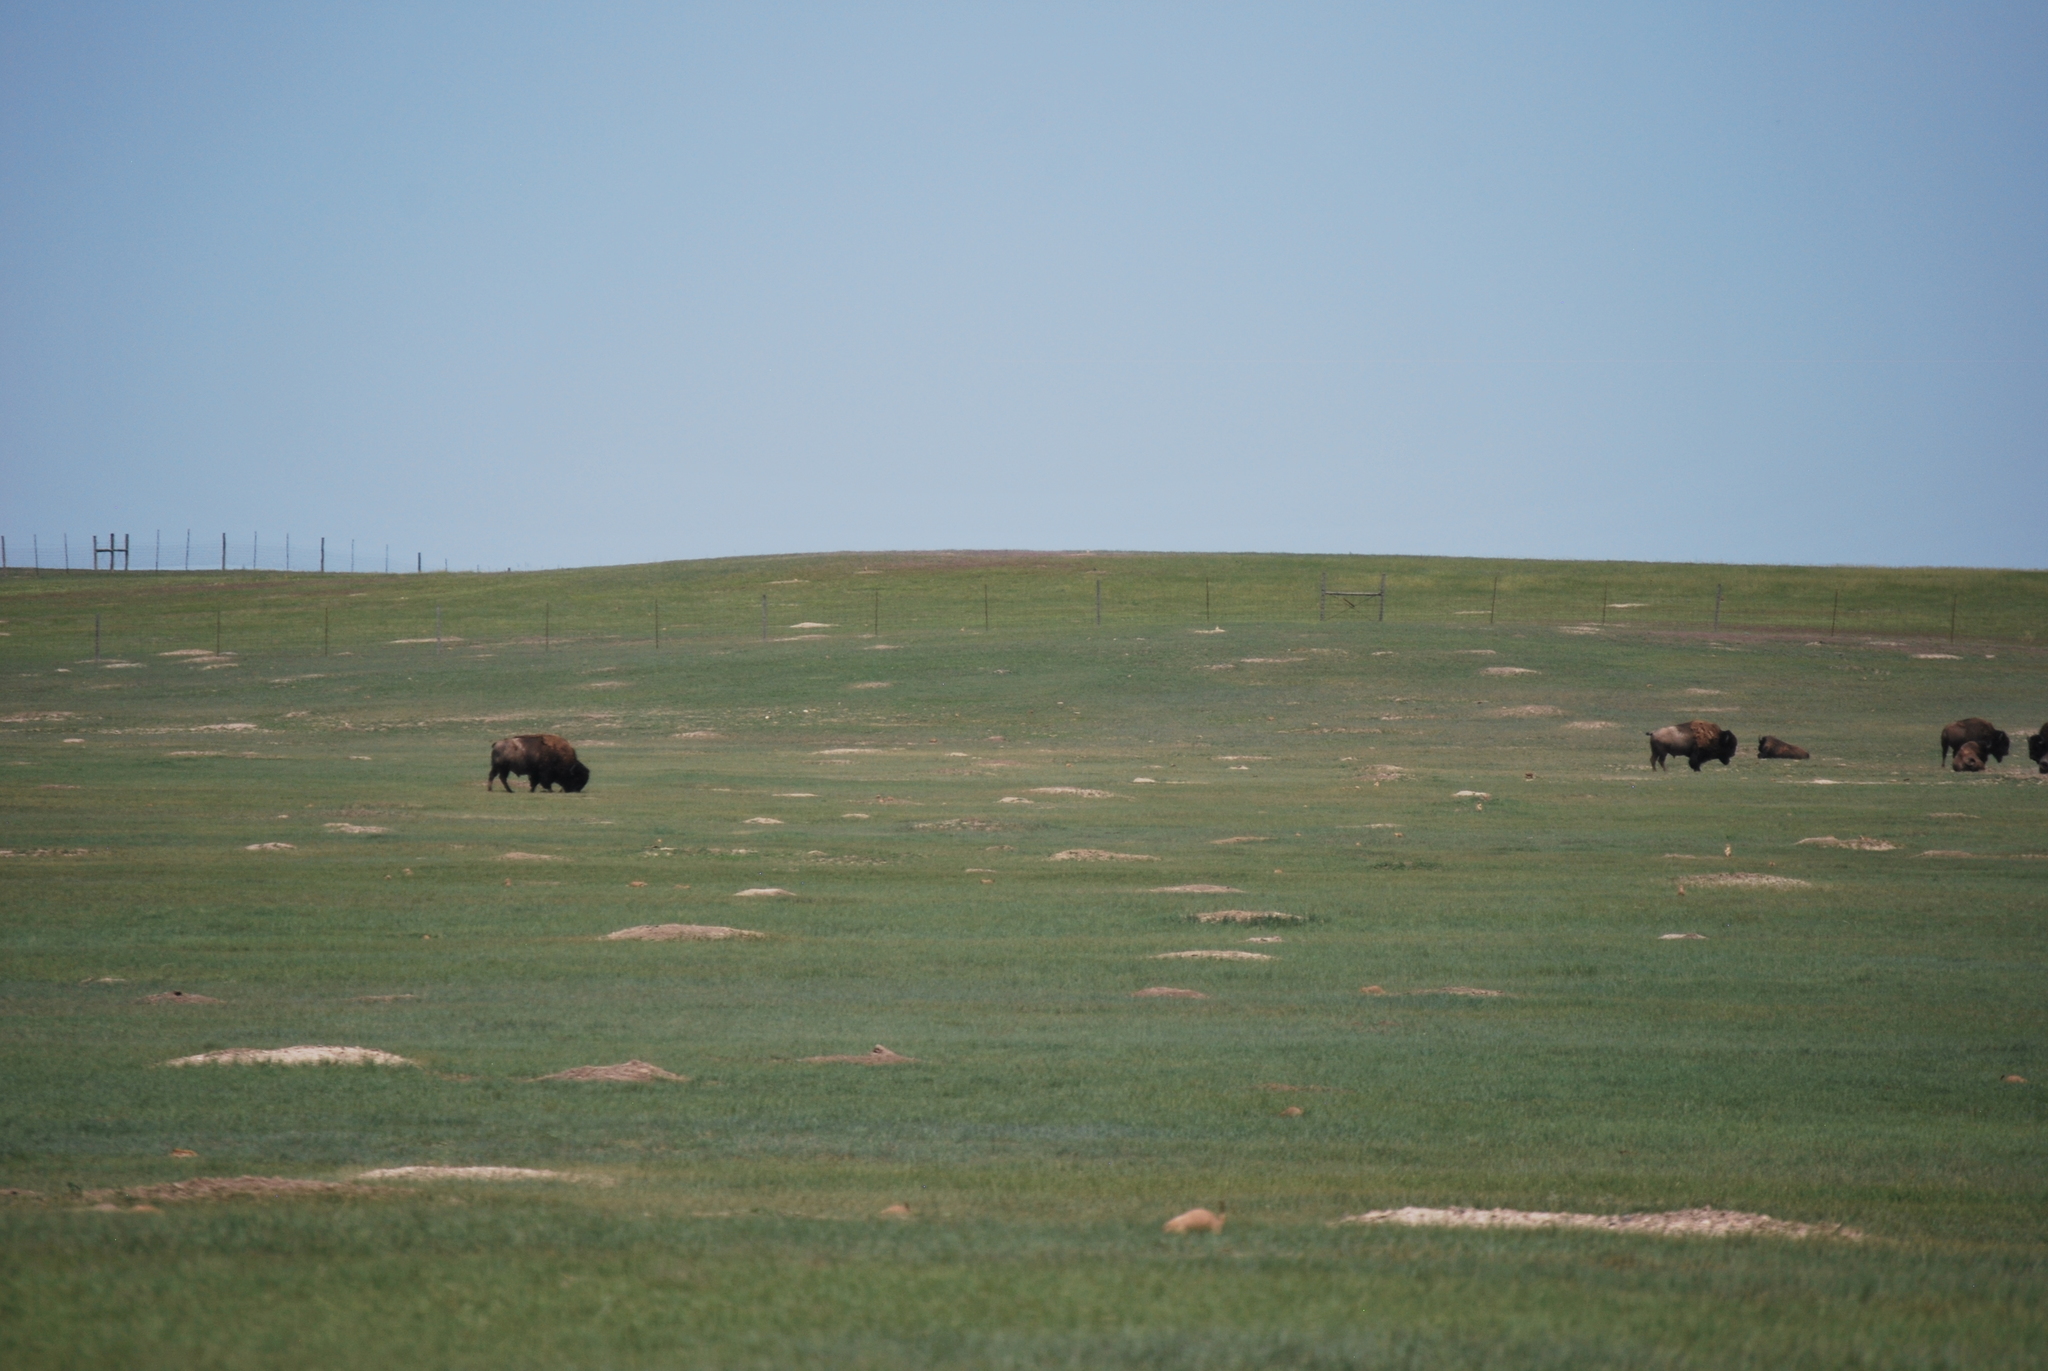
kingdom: Animalia
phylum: Chordata
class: Mammalia
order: Artiodactyla
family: Bovidae
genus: Bison
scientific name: Bison bison
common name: American bison
